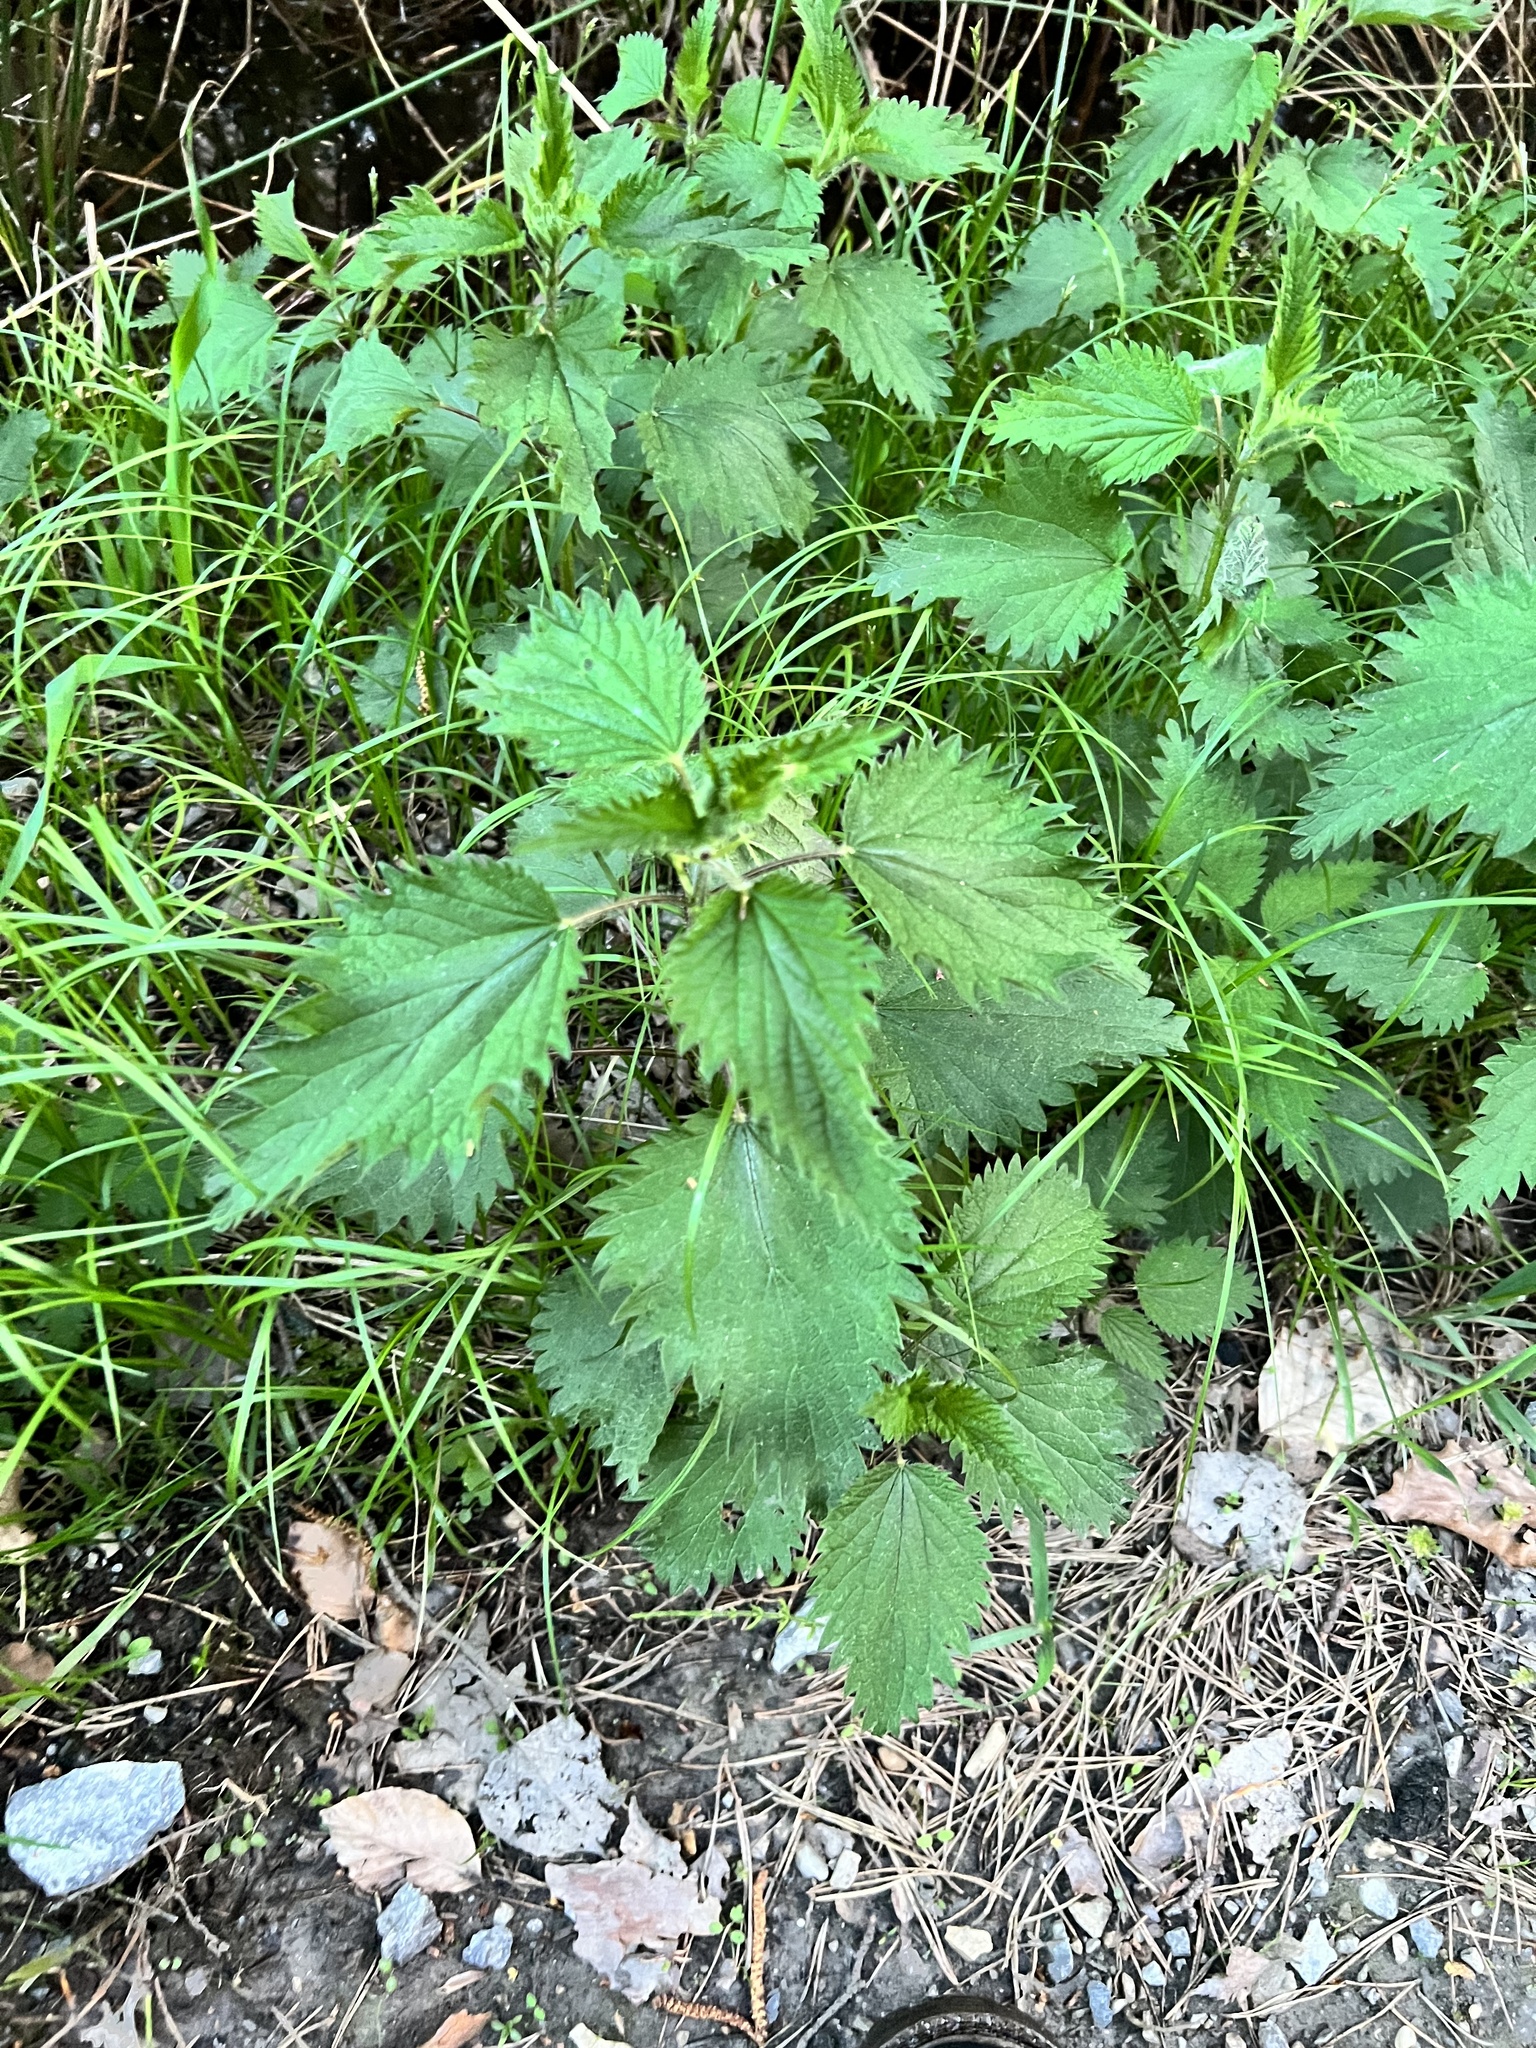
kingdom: Plantae
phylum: Tracheophyta
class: Magnoliopsida
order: Rosales
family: Urticaceae
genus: Urtica
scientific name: Urtica dioica
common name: Common nettle
